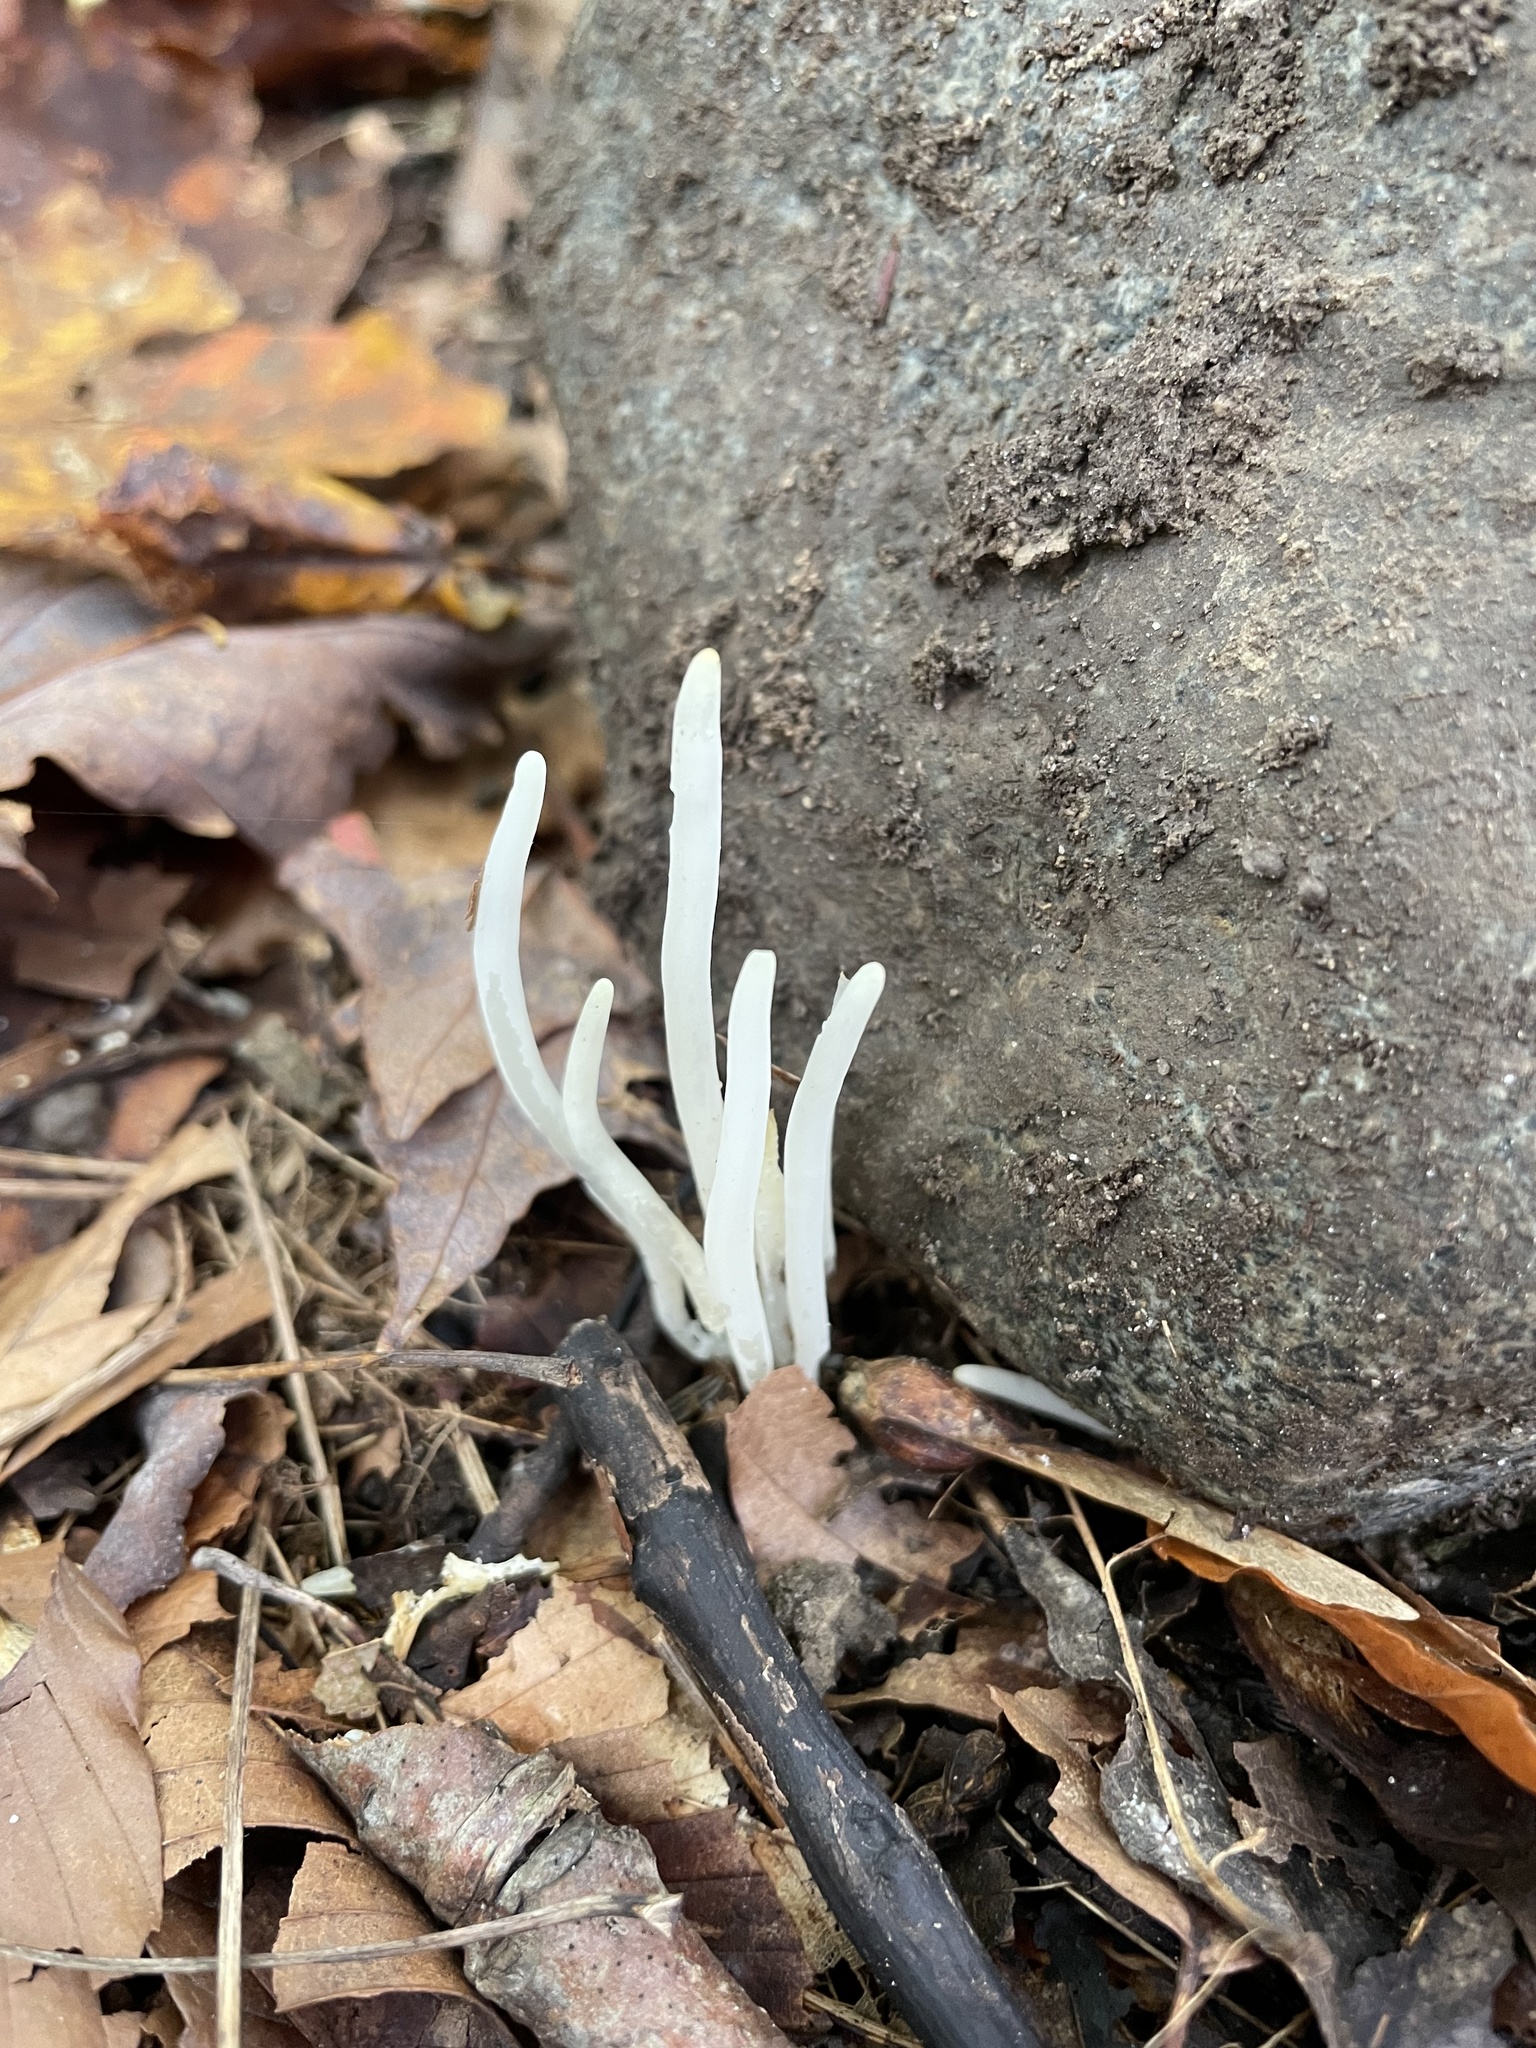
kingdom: Fungi
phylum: Basidiomycota
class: Agaricomycetes
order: Agaricales
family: Clavariaceae
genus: Clavaria
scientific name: Clavaria fragilis
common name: White spindles
